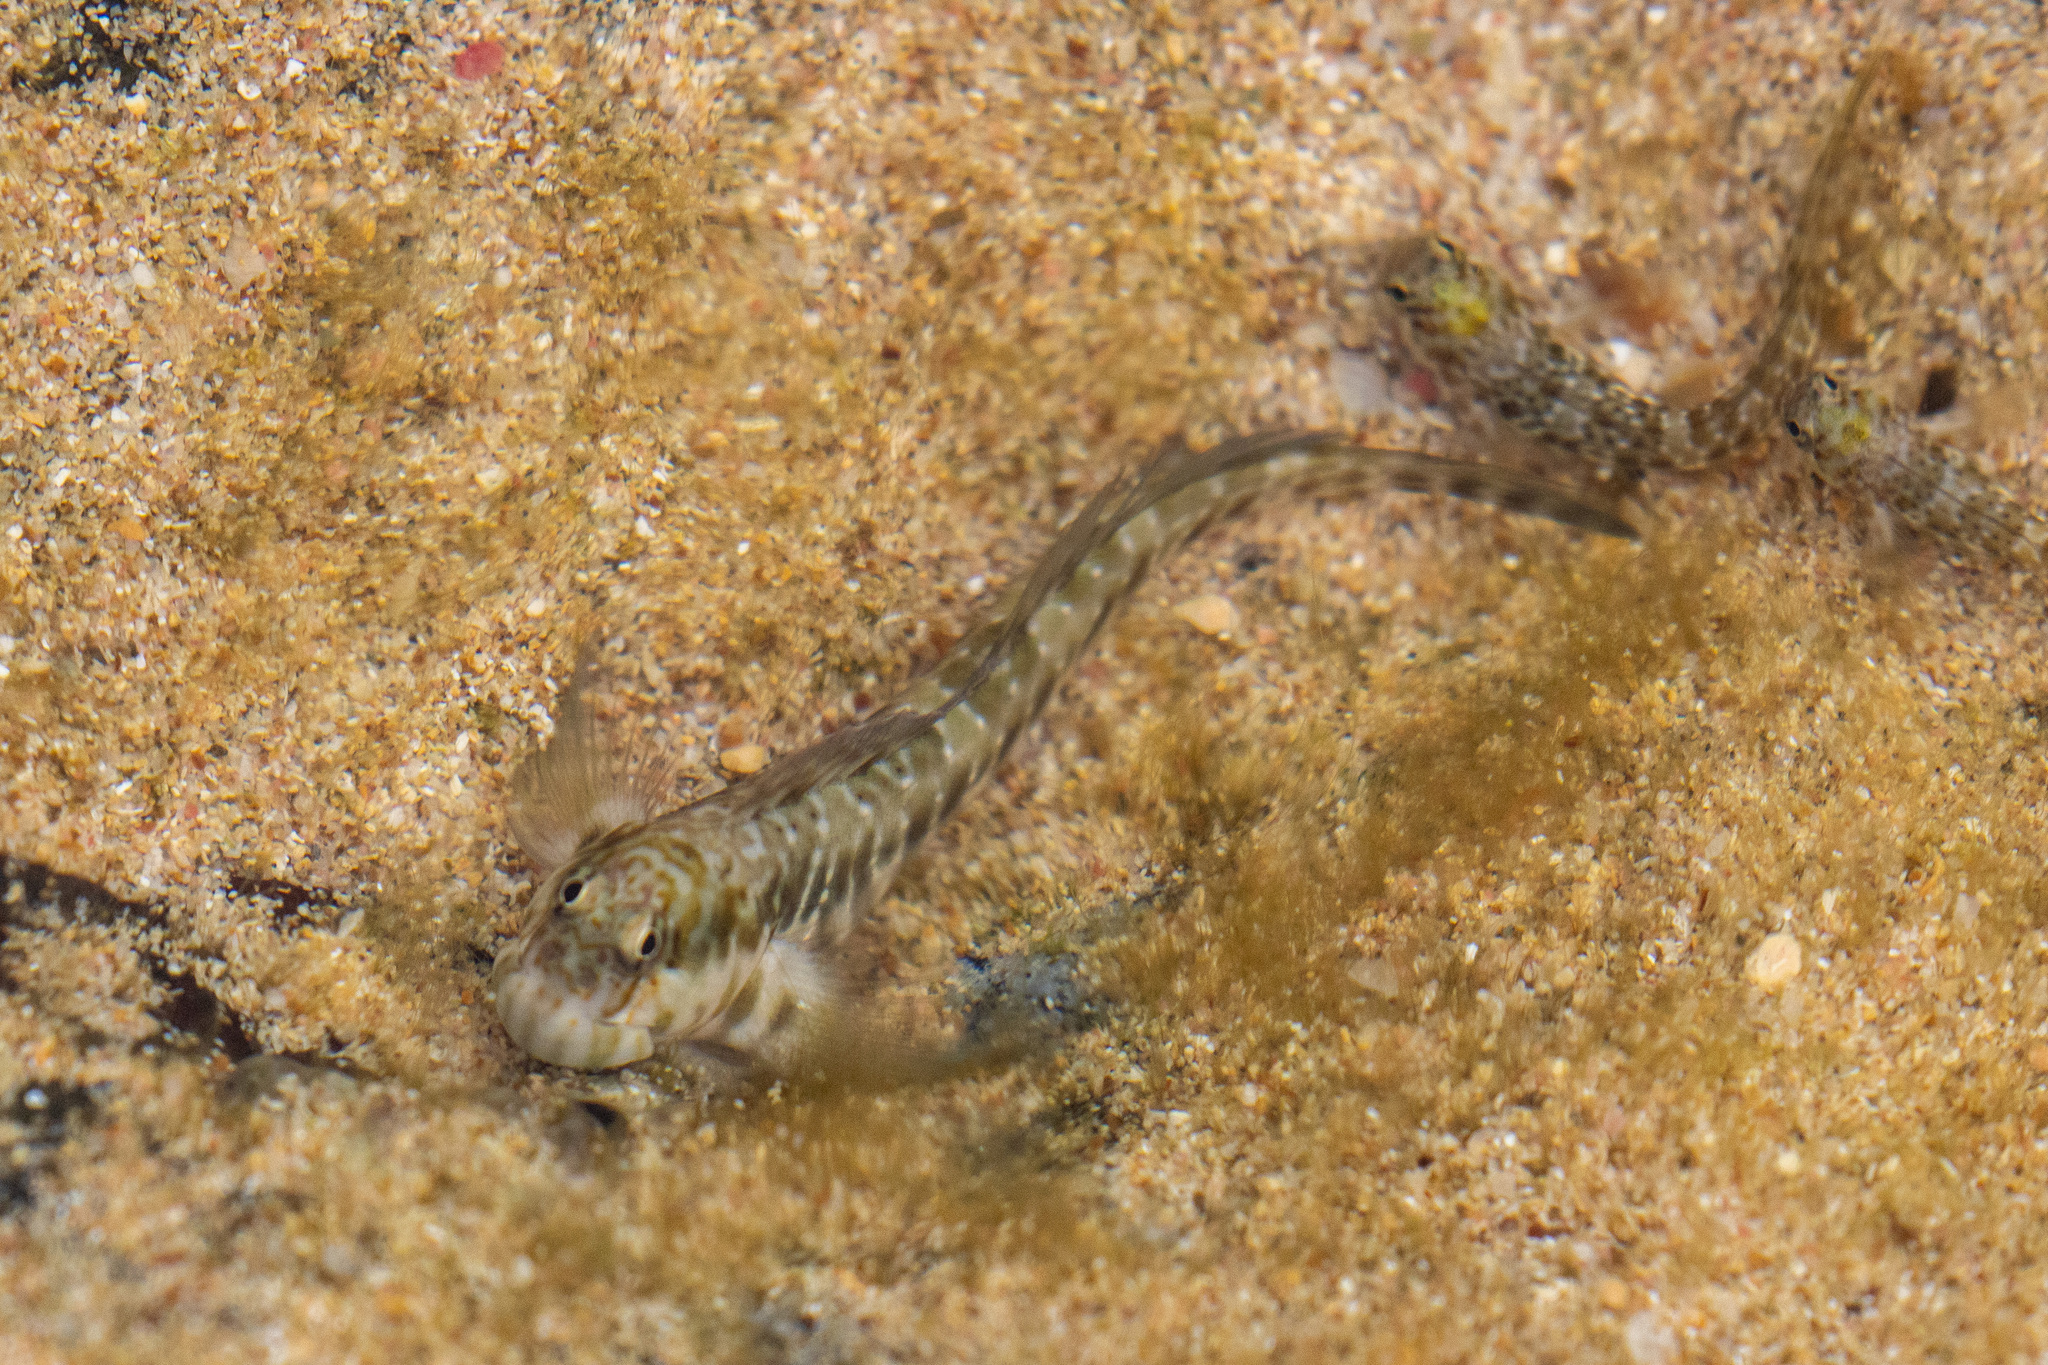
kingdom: Animalia
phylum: Chordata
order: Perciformes
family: Blenniidae
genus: Entomacrodus
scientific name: Entomacrodus vomerinus
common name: Rockpool blenny
